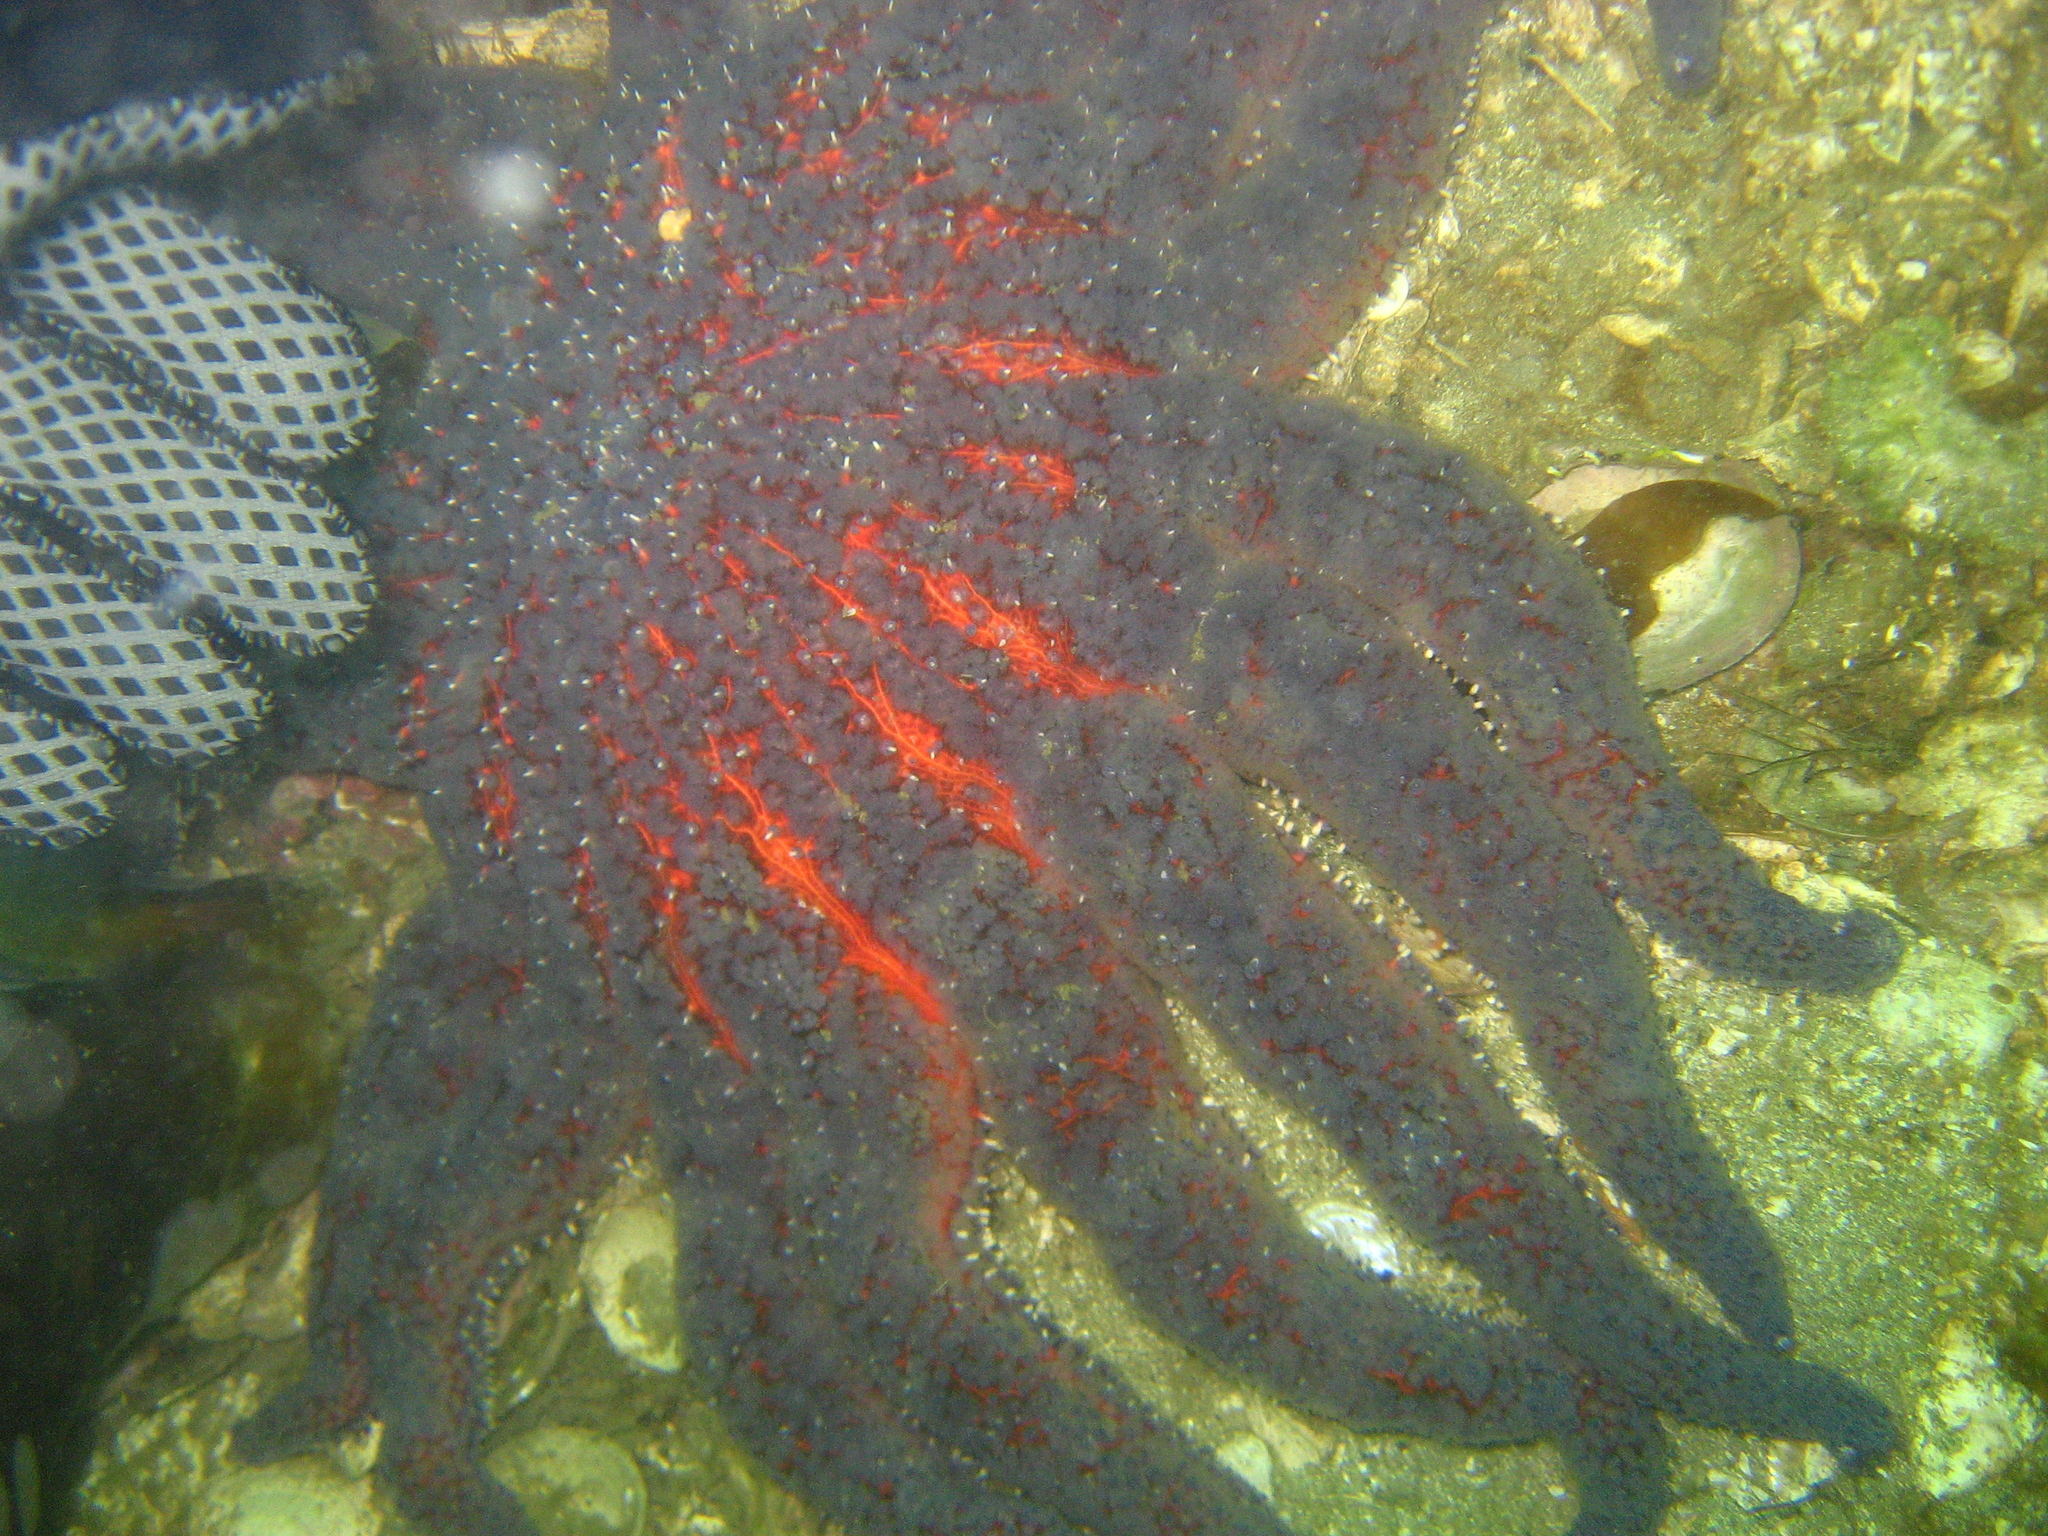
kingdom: Animalia
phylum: Echinodermata
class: Asteroidea
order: Forcipulatida
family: Asteriidae
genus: Pycnopodia
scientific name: Pycnopodia helianthoides
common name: Rag mop
